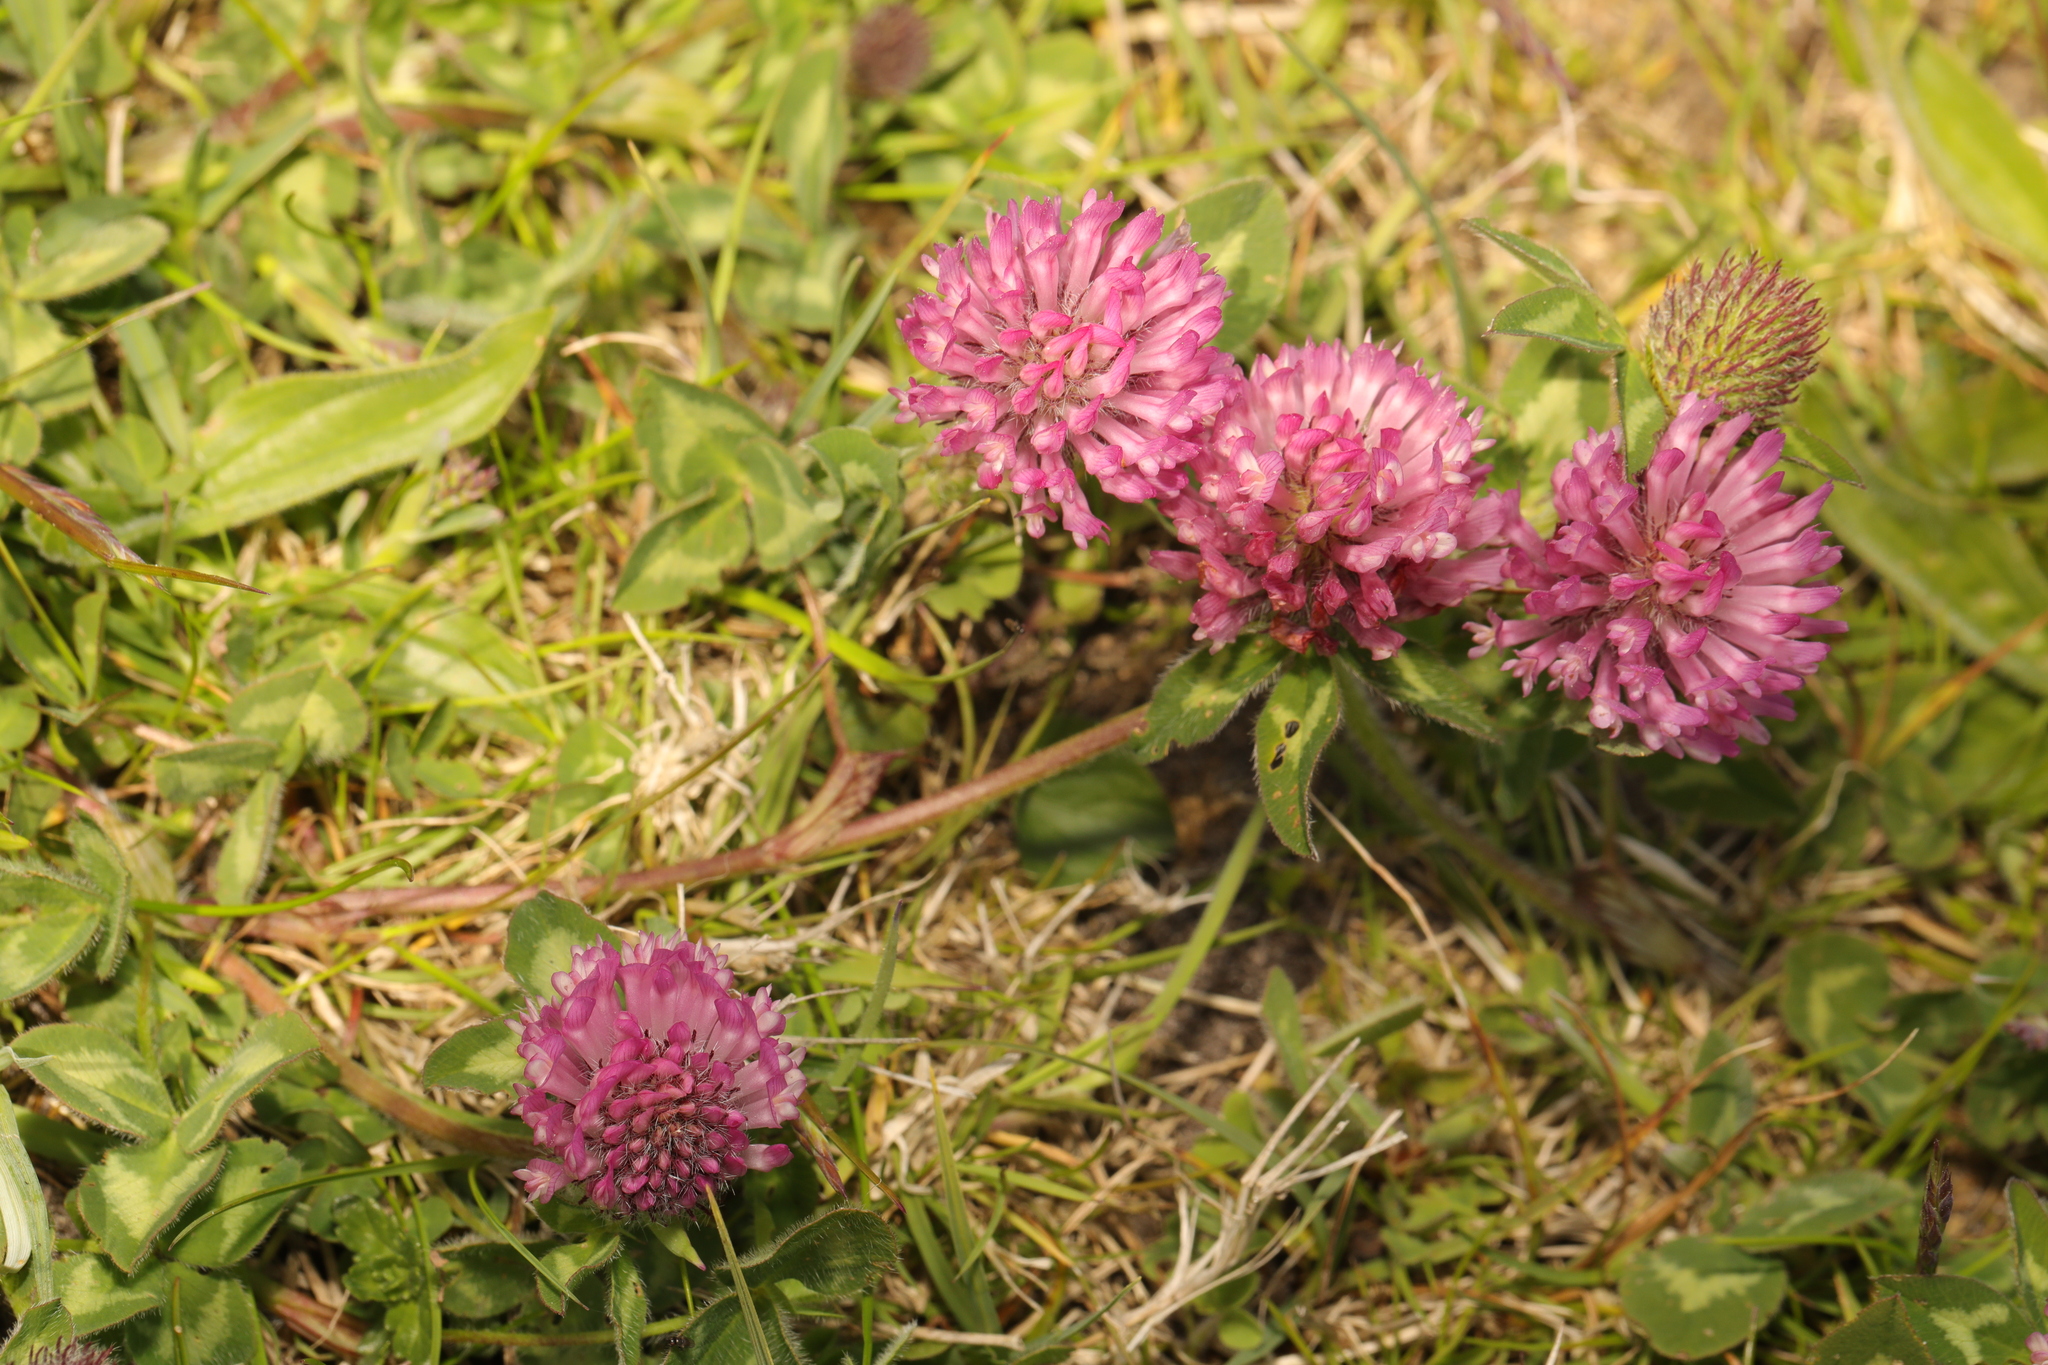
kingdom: Plantae
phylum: Tracheophyta
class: Magnoliopsida
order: Fabales
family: Fabaceae
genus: Trifolium
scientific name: Trifolium pratense
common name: Red clover
